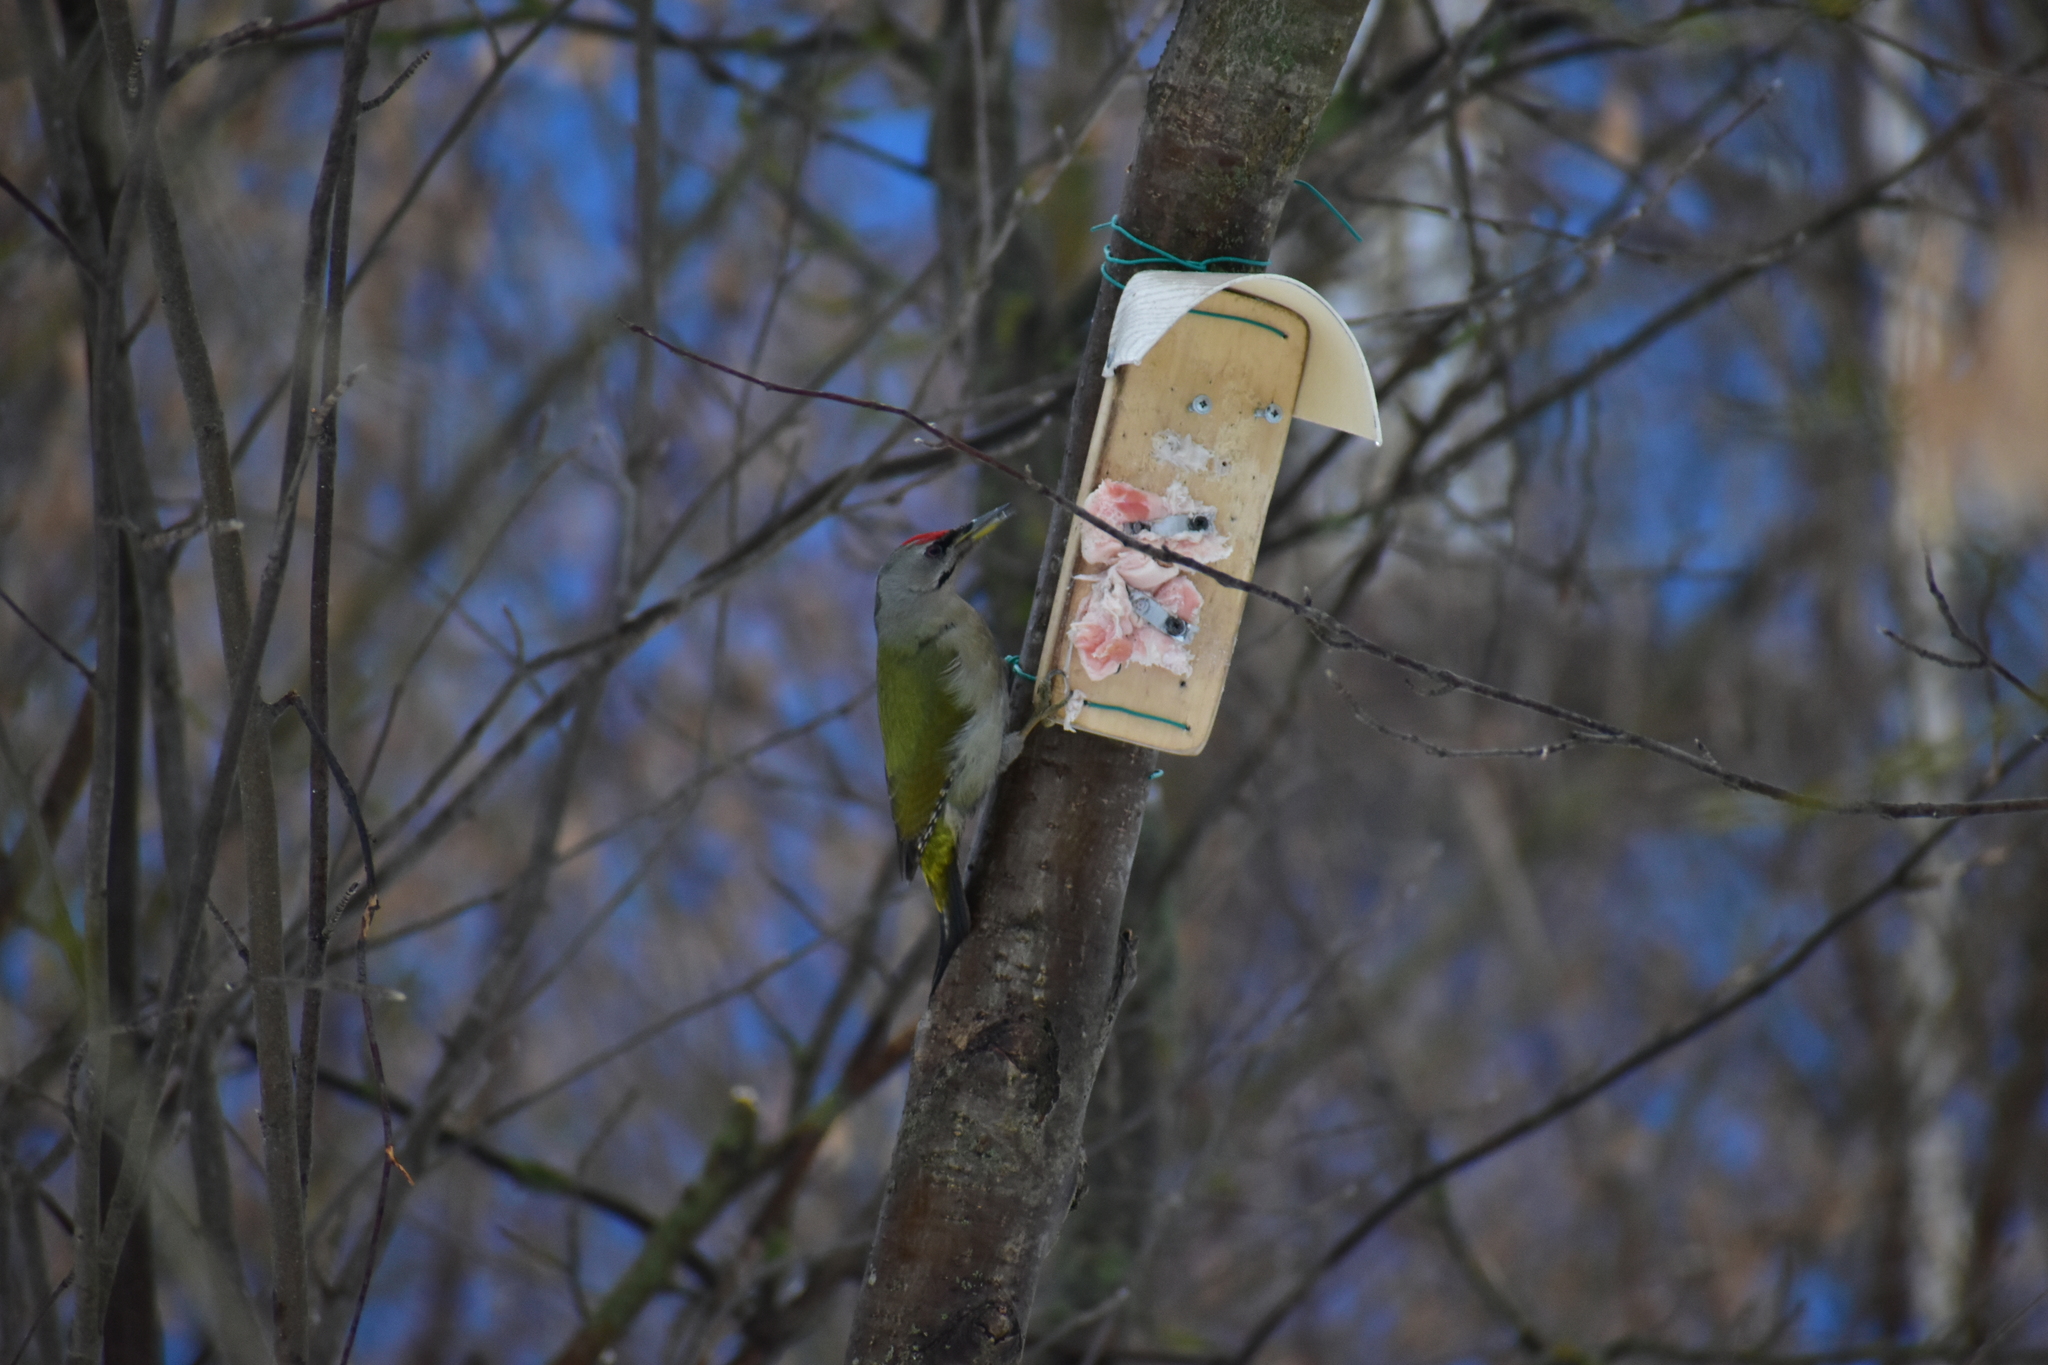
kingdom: Animalia
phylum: Chordata
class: Aves
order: Piciformes
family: Picidae
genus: Picus
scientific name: Picus canus
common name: Grey-headed woodpecker
